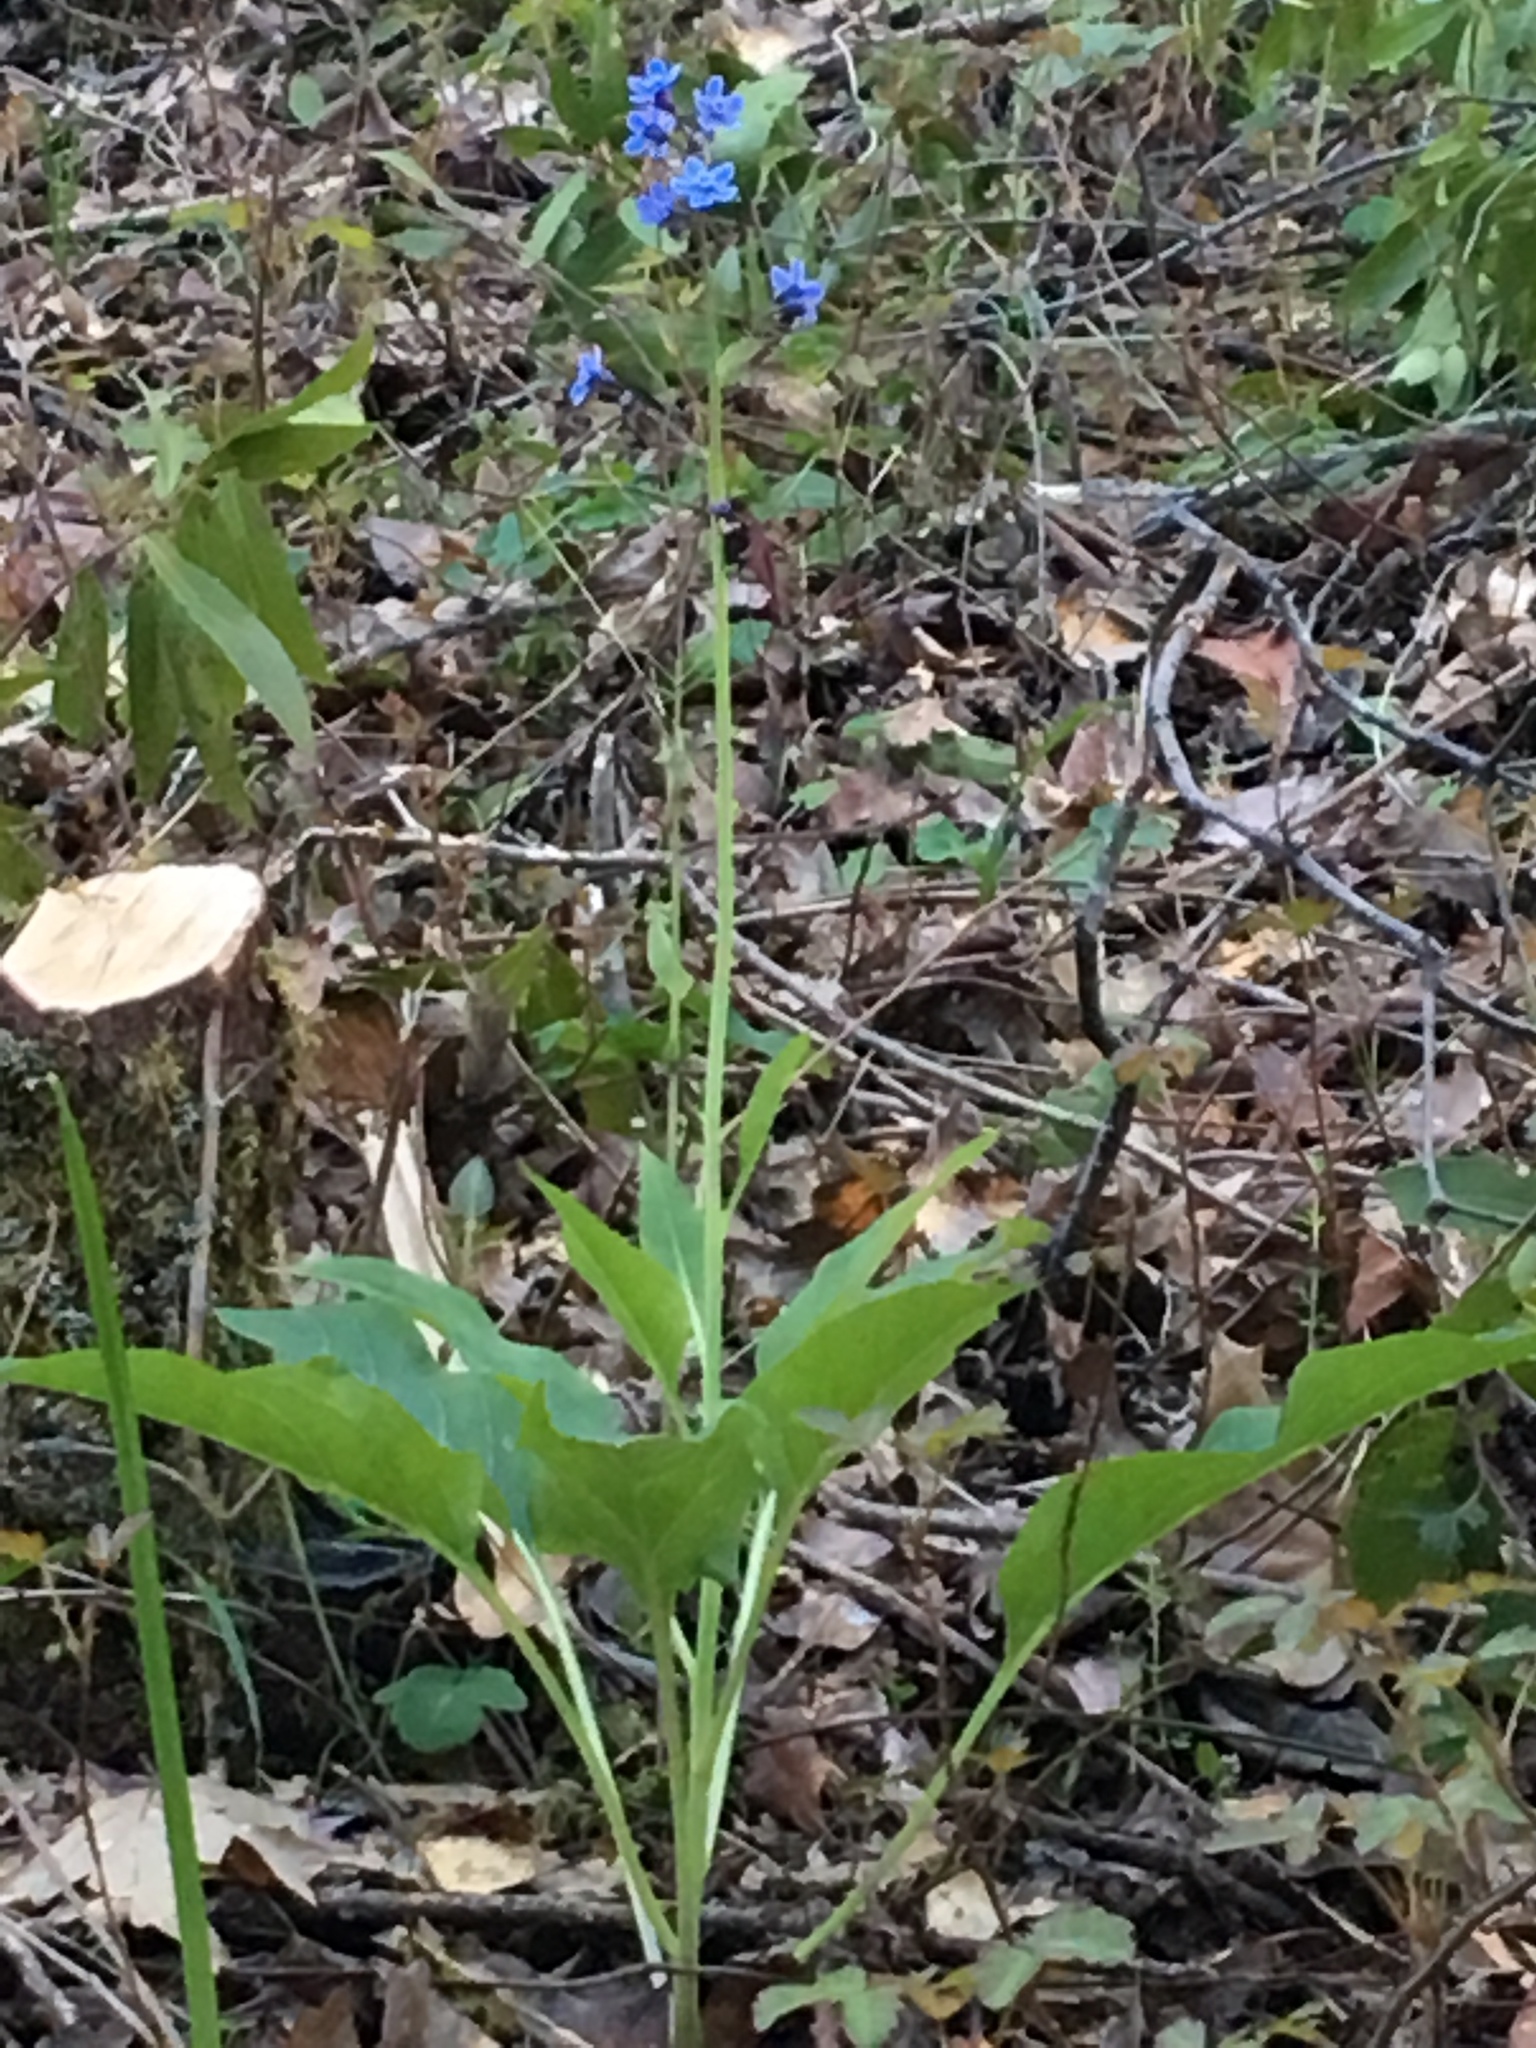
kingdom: Plantae
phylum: Tracheophyta
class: Magnoliopsida
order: Boraginales
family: Boraginaceae
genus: Adelinia
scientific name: Adelinia grande
